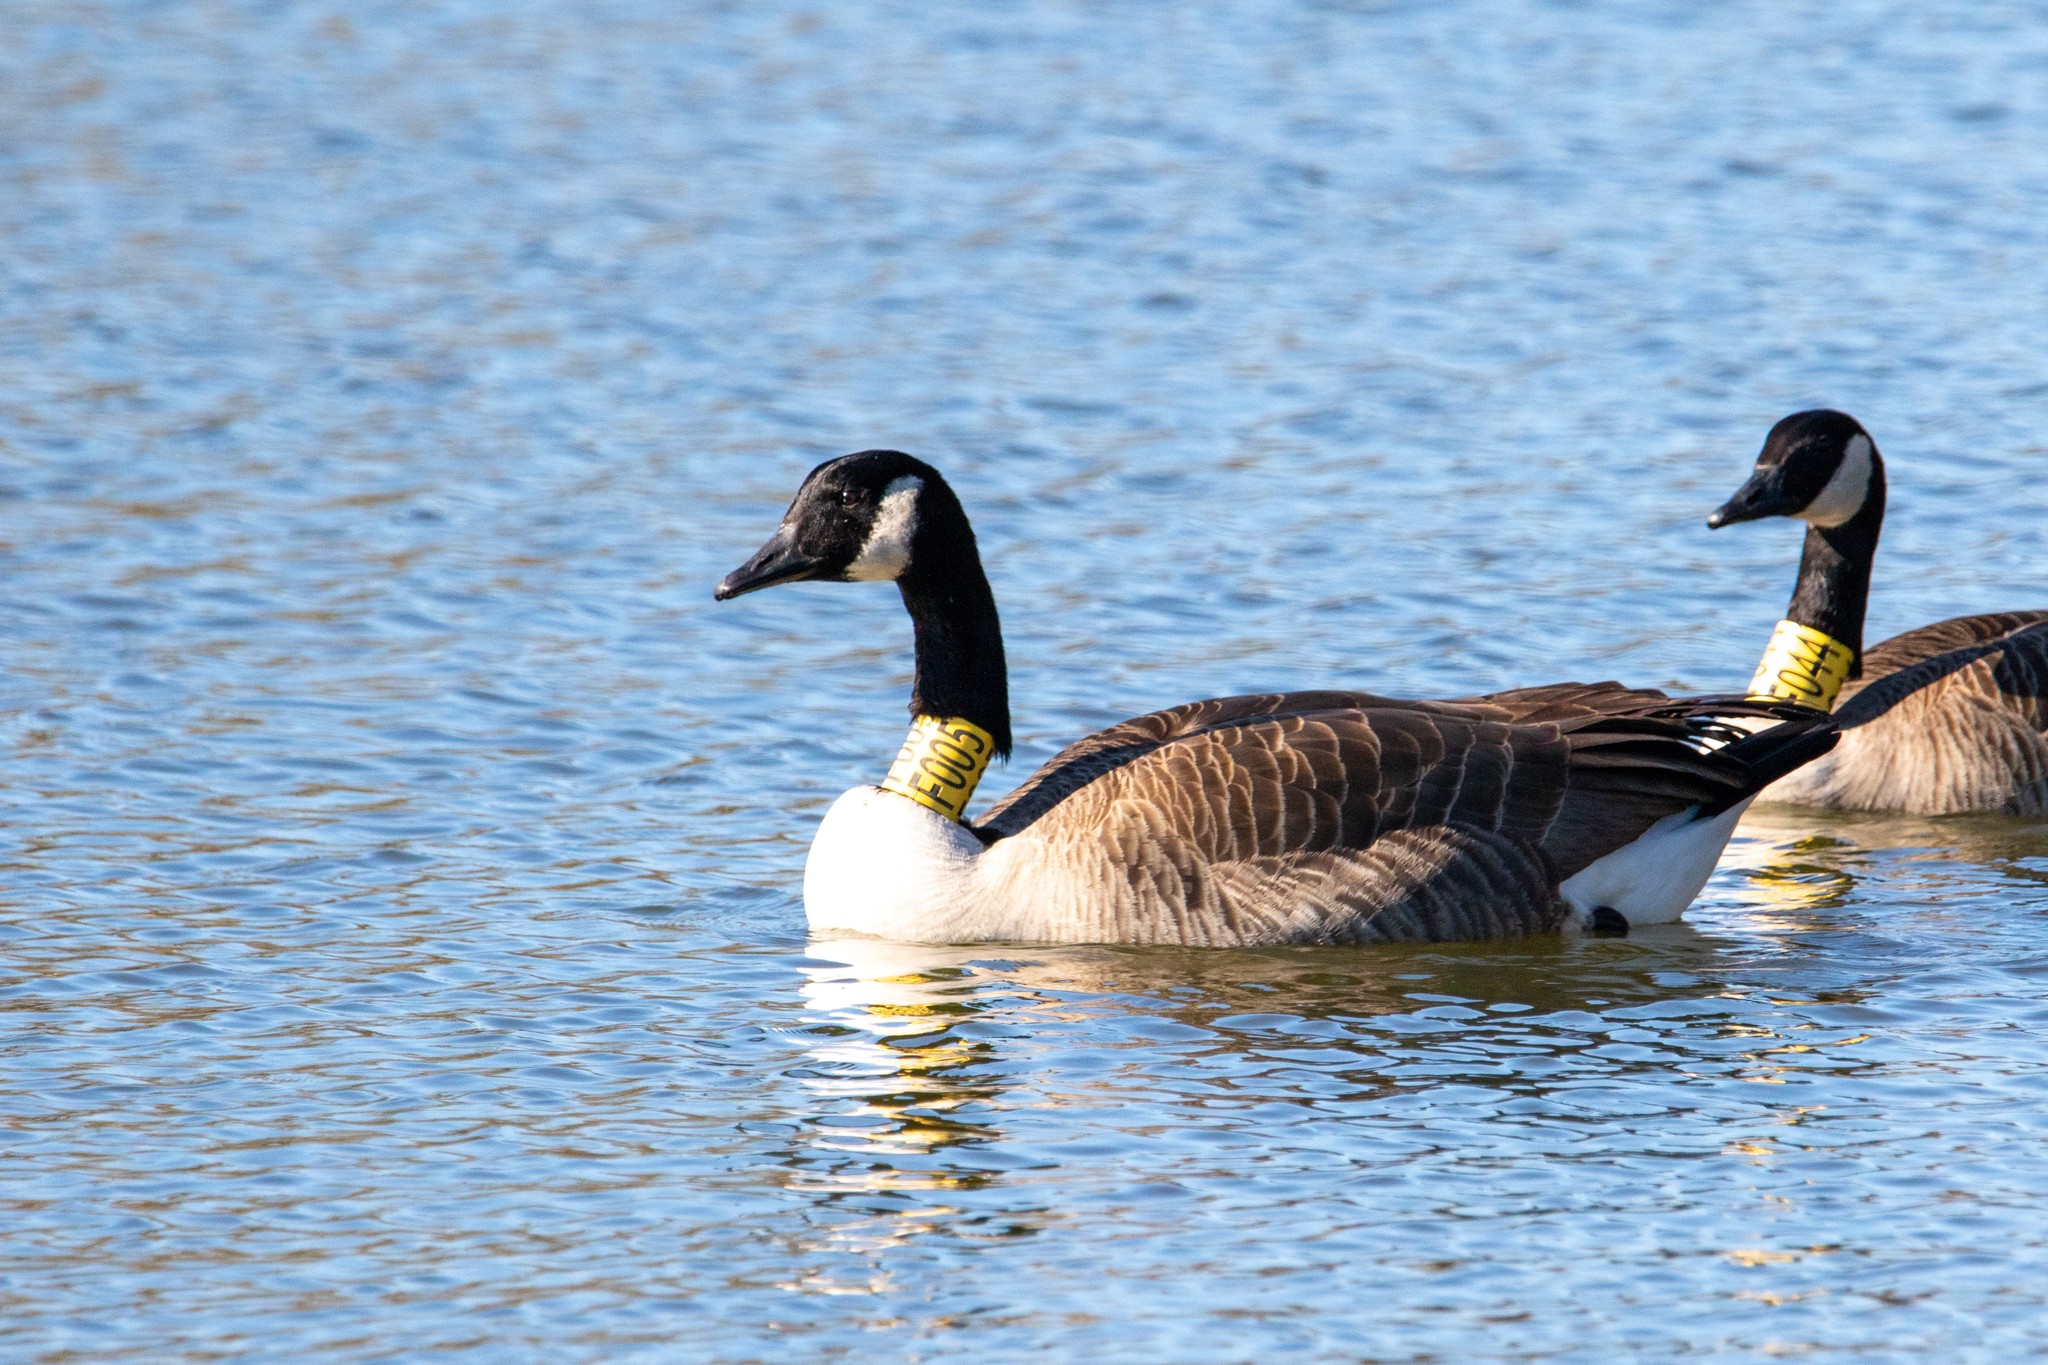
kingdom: Animalia
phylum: Chordata
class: Aves
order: Anseriformes
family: Anatidae
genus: Branta
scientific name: Branta canadensis
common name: Canada goose
